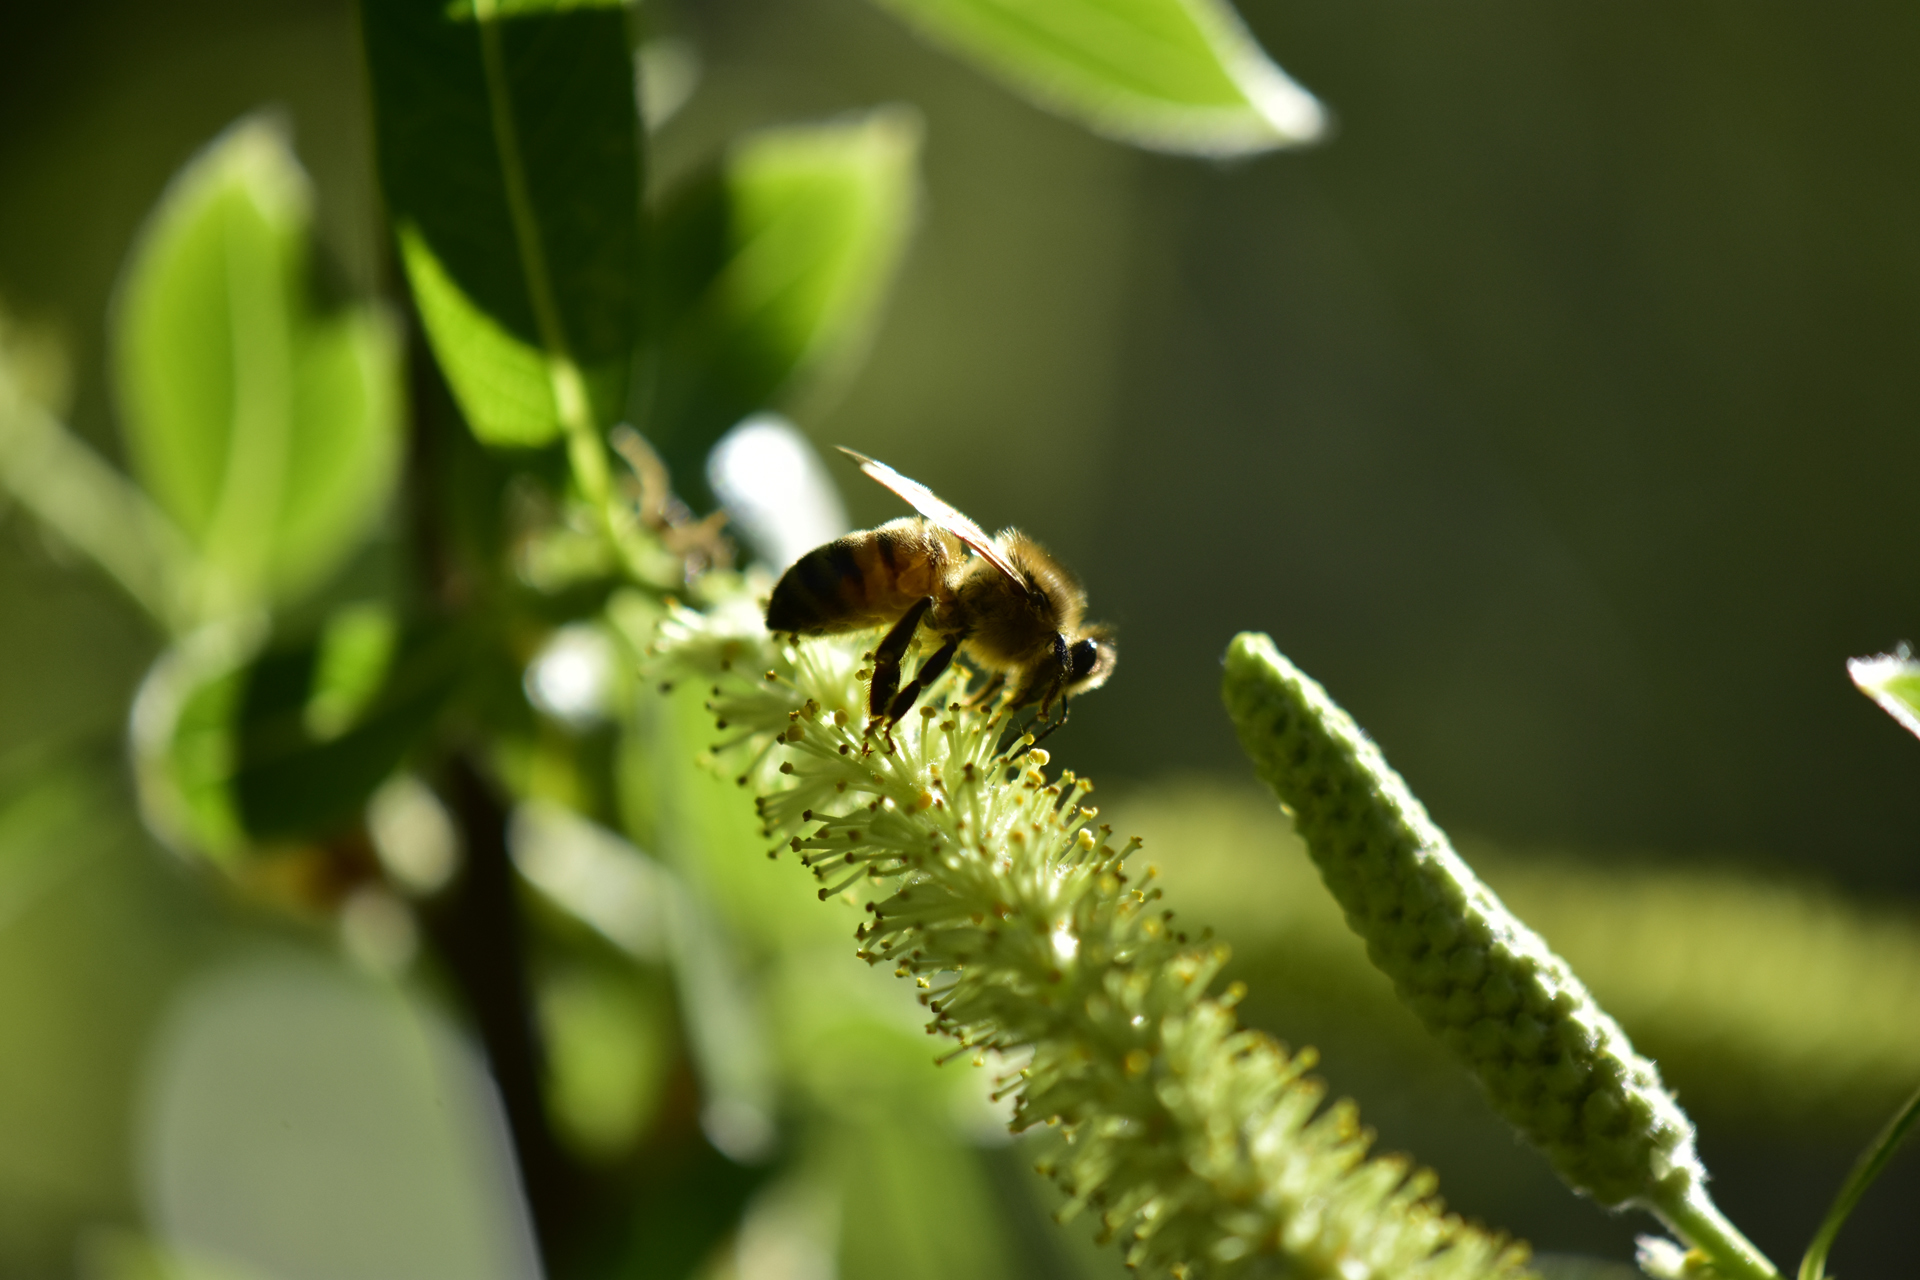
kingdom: Animalia
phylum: Arthropoda
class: Insecta
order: Hymenoptera
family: Apidae
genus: Apis
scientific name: Apis mellifera
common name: Honey bee
